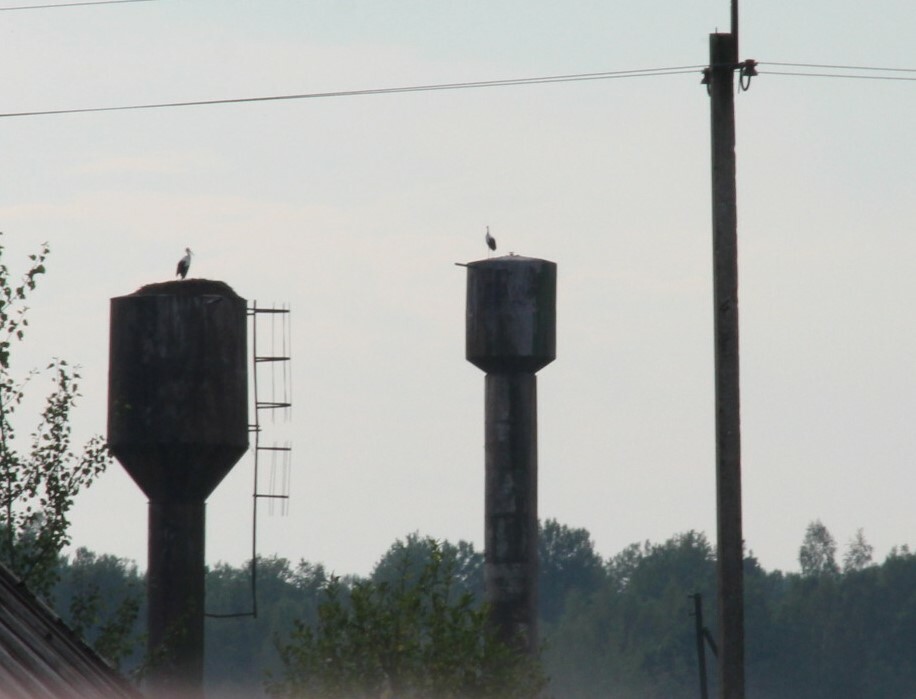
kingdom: Animalia
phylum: Chordata
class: Aves
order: Ciconiiformes
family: Ciconiidae
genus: Ciconia
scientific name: Ciconia ciconia
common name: White stork
